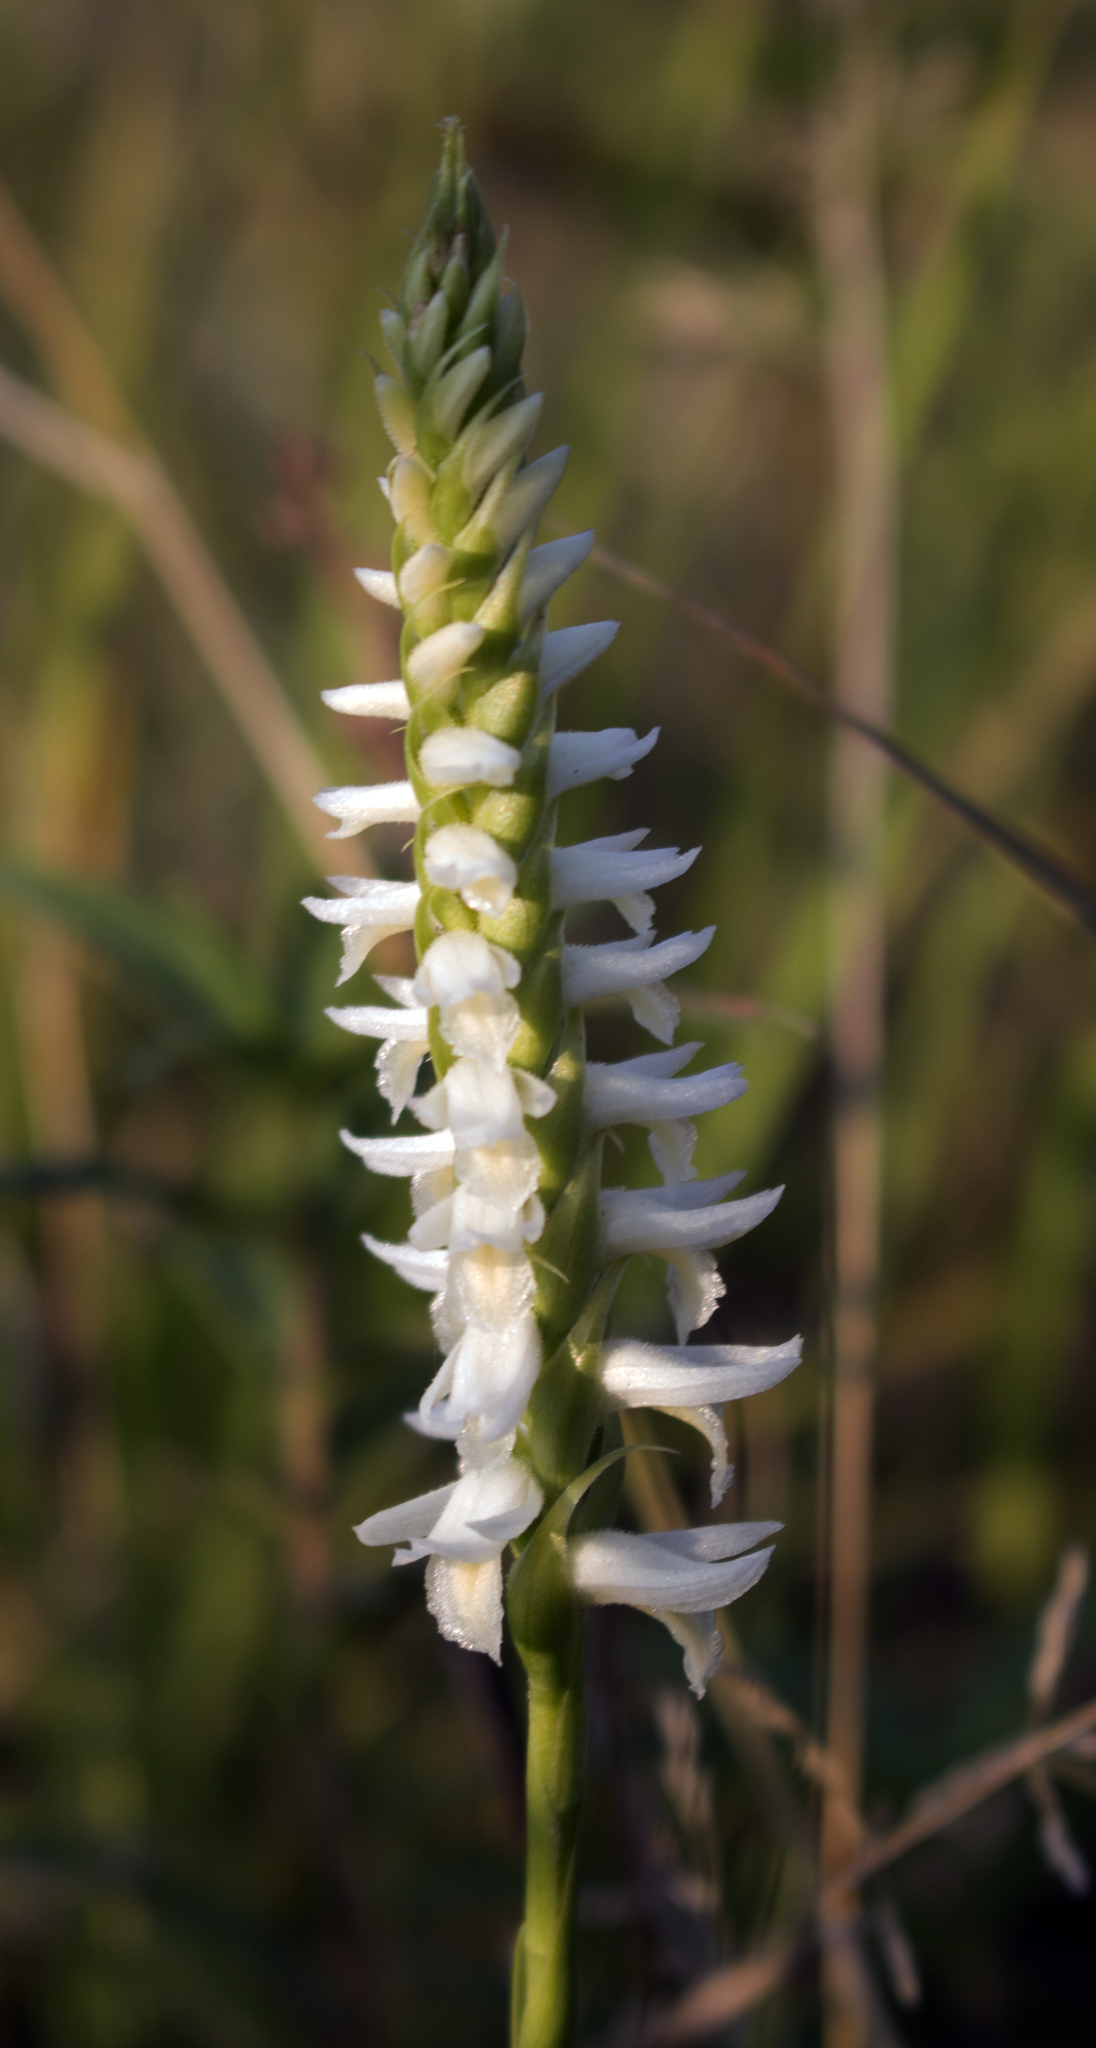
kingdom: Plantae
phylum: Tracheophyta
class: Liliopsida
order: Asparagales
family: Orchidaceae
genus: Spiranthes
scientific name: Spiranthes magnicamporum
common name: Great plains ladies'-tresses
